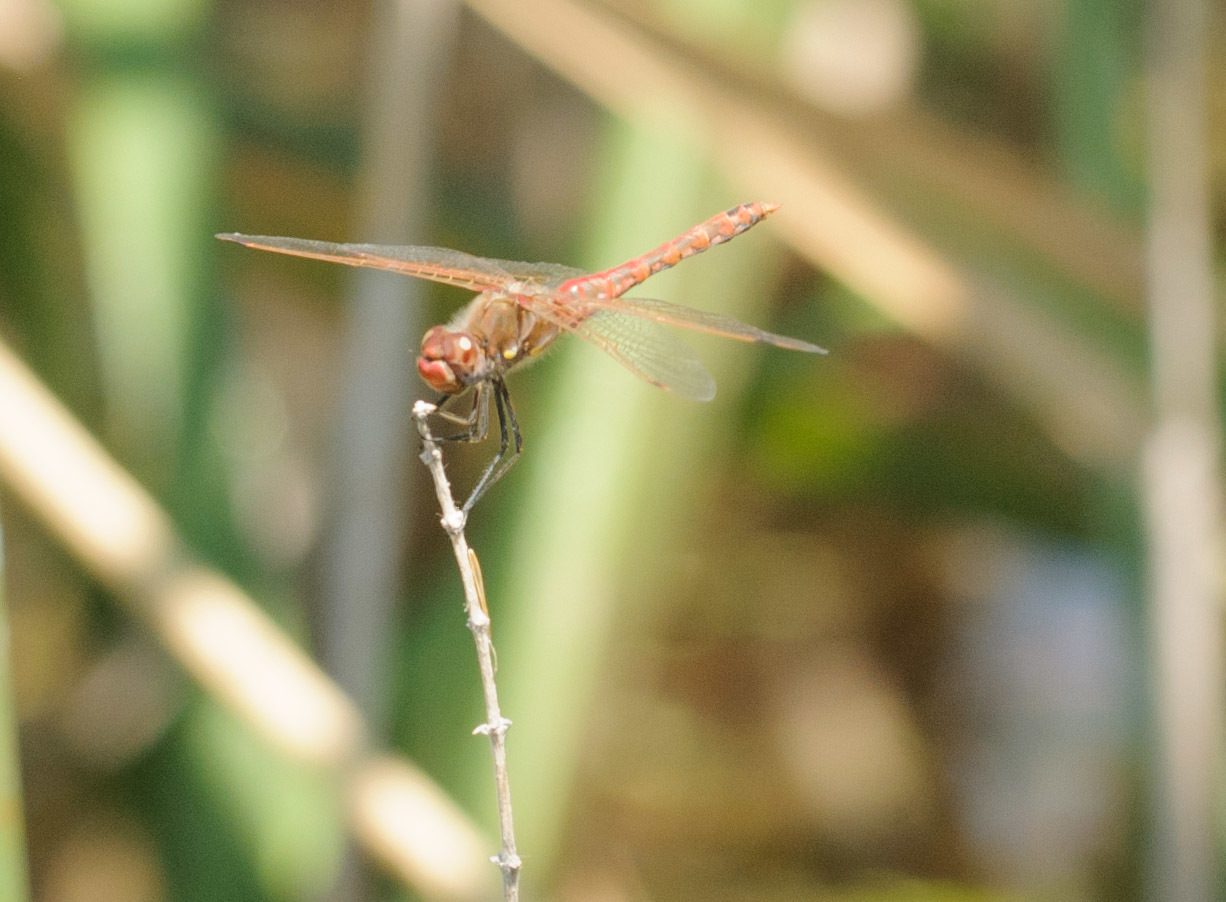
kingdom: Animalia
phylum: Arthropoda
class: Insecta
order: Odonata
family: Libellulidae
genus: Sympetrum
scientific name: Sympetrum corruptum
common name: Variegated meadowhawk
